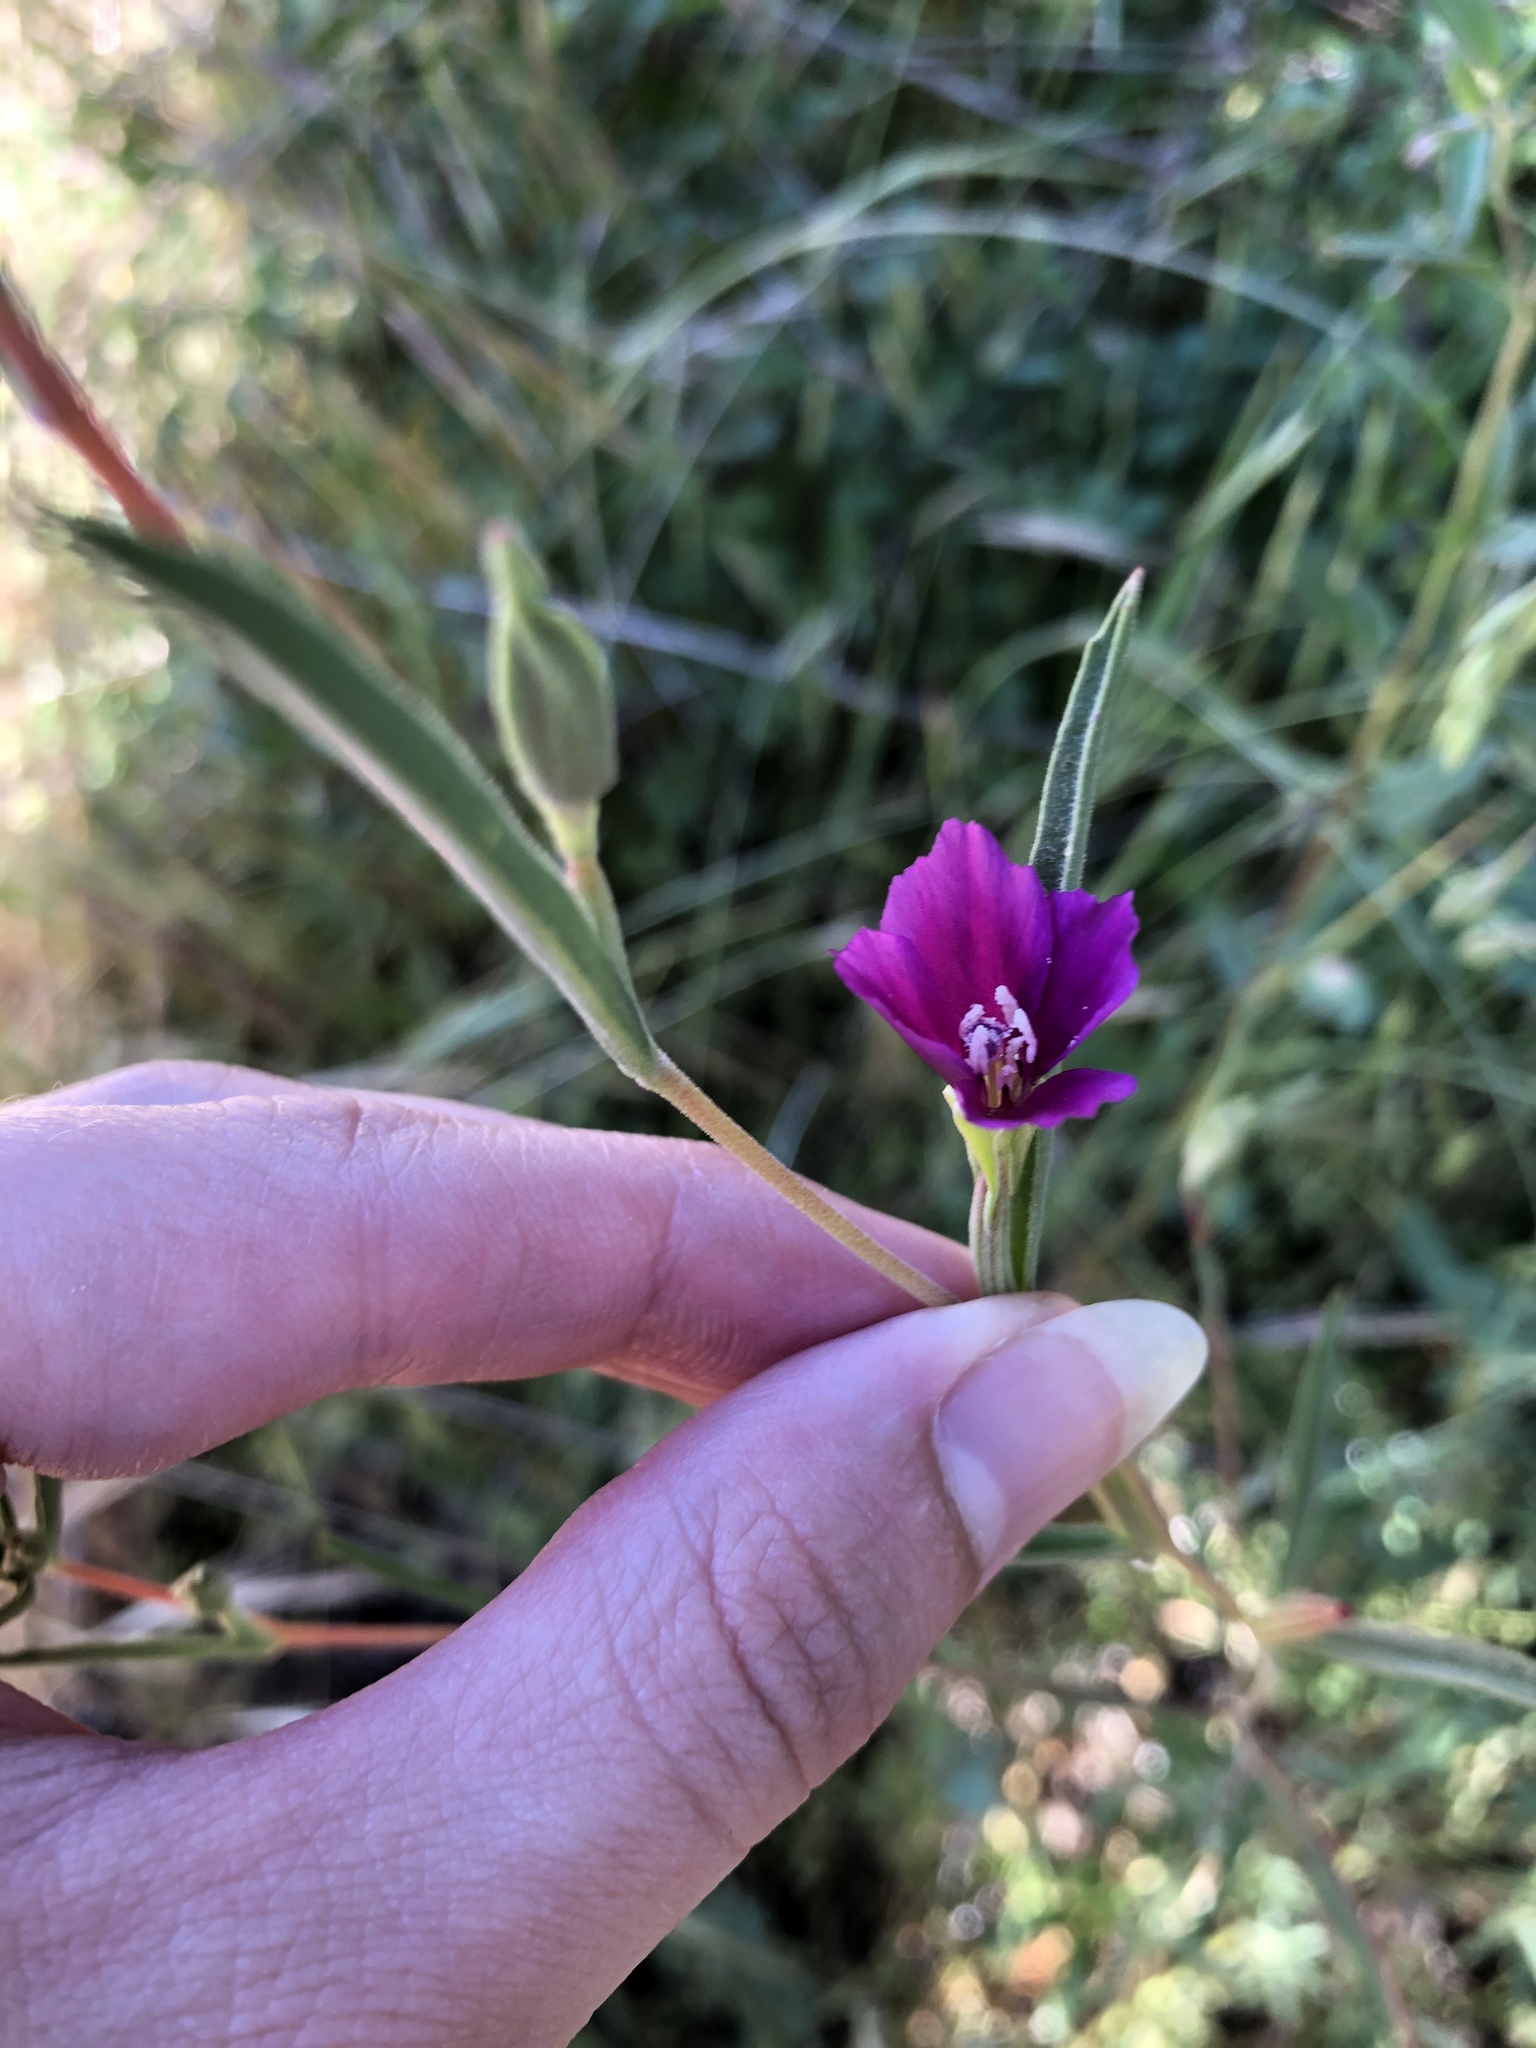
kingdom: Plantae
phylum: Tracheophyta
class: Magnoliopsida
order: Myrtales
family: Onagraceae
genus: Clarkia
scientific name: Clarkia purpurea
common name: Purple clarkia
